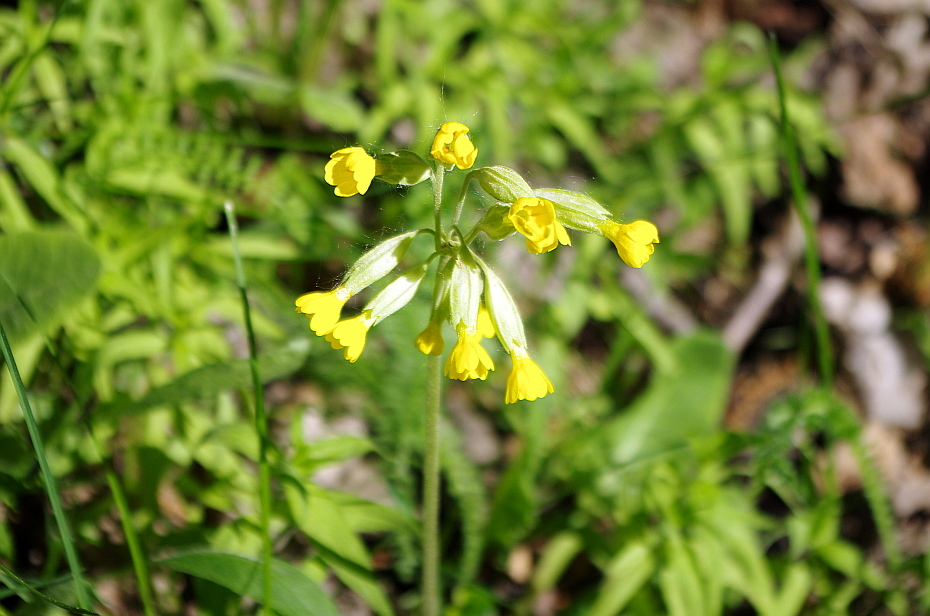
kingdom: Plantae
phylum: Tracheophyta
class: Magnoliopsida
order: Ericales
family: Primulaceae
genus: Primula
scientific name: Primula veris
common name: Cowslip
